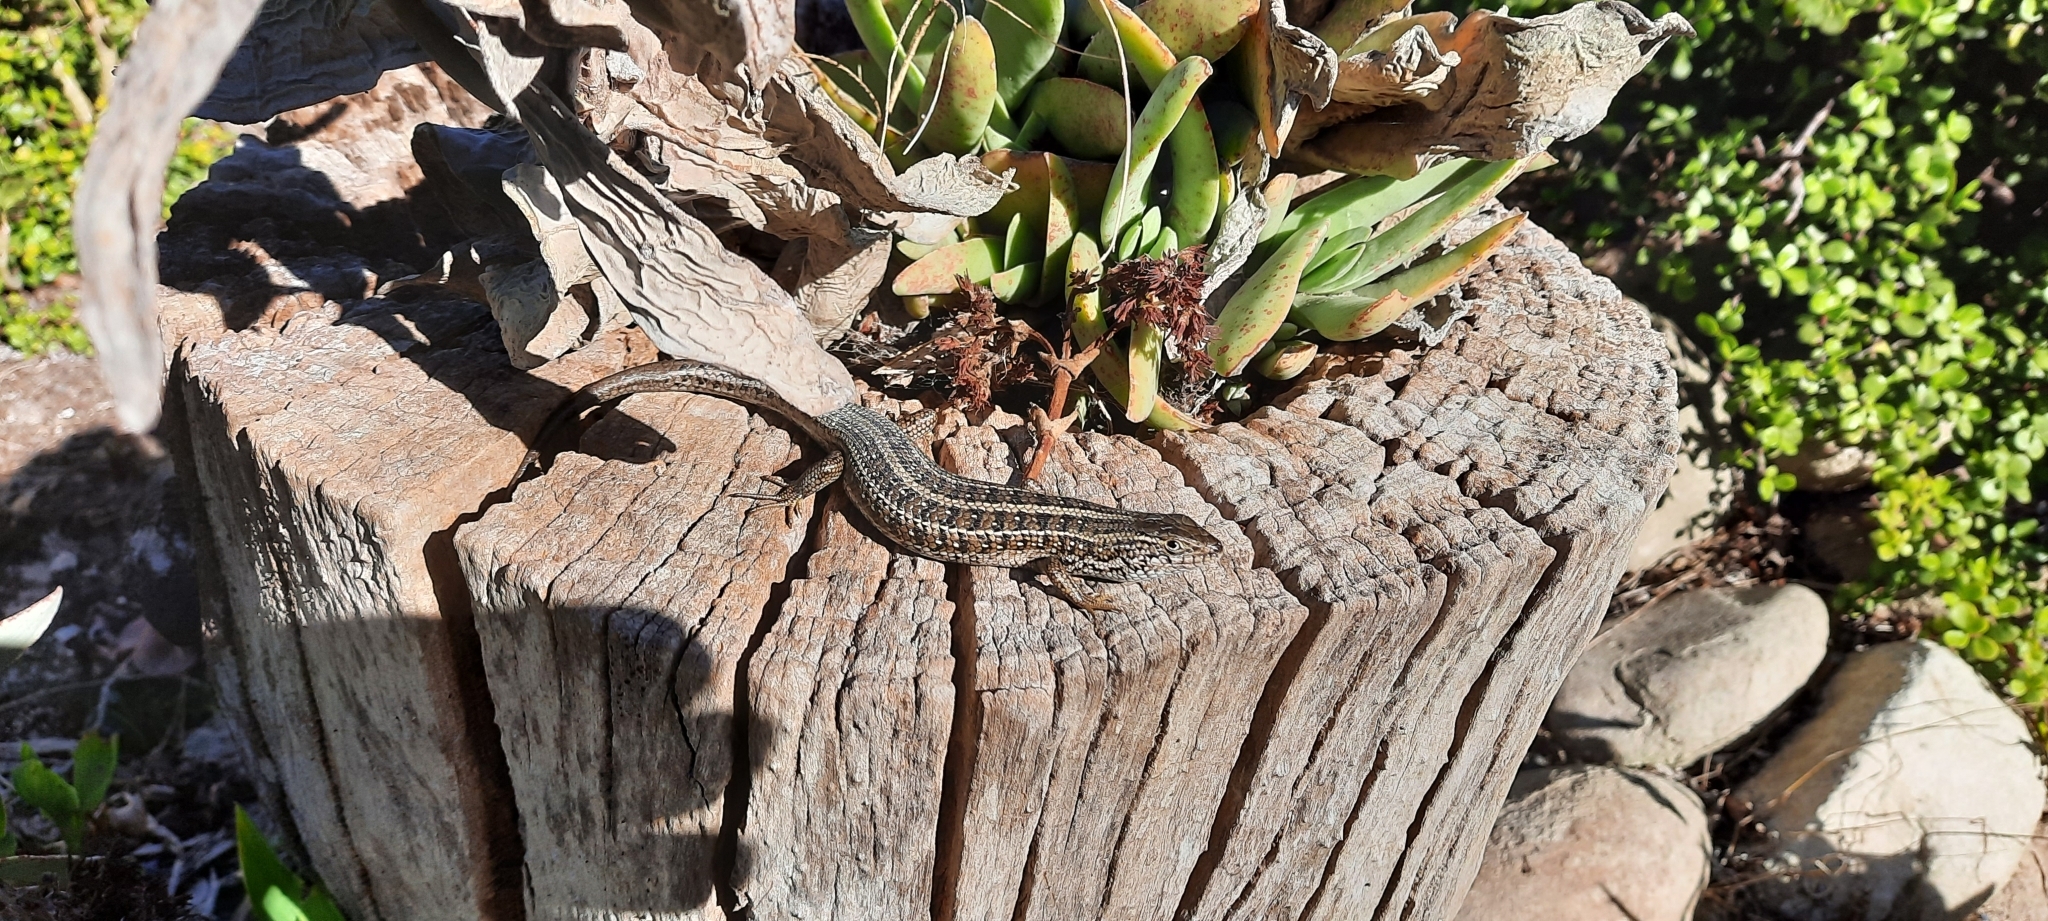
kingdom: Animalia
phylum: Chordata
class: Squamata
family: Scincidae
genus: Trachylepis
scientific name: Trachylepis capensis
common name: Cape skink
